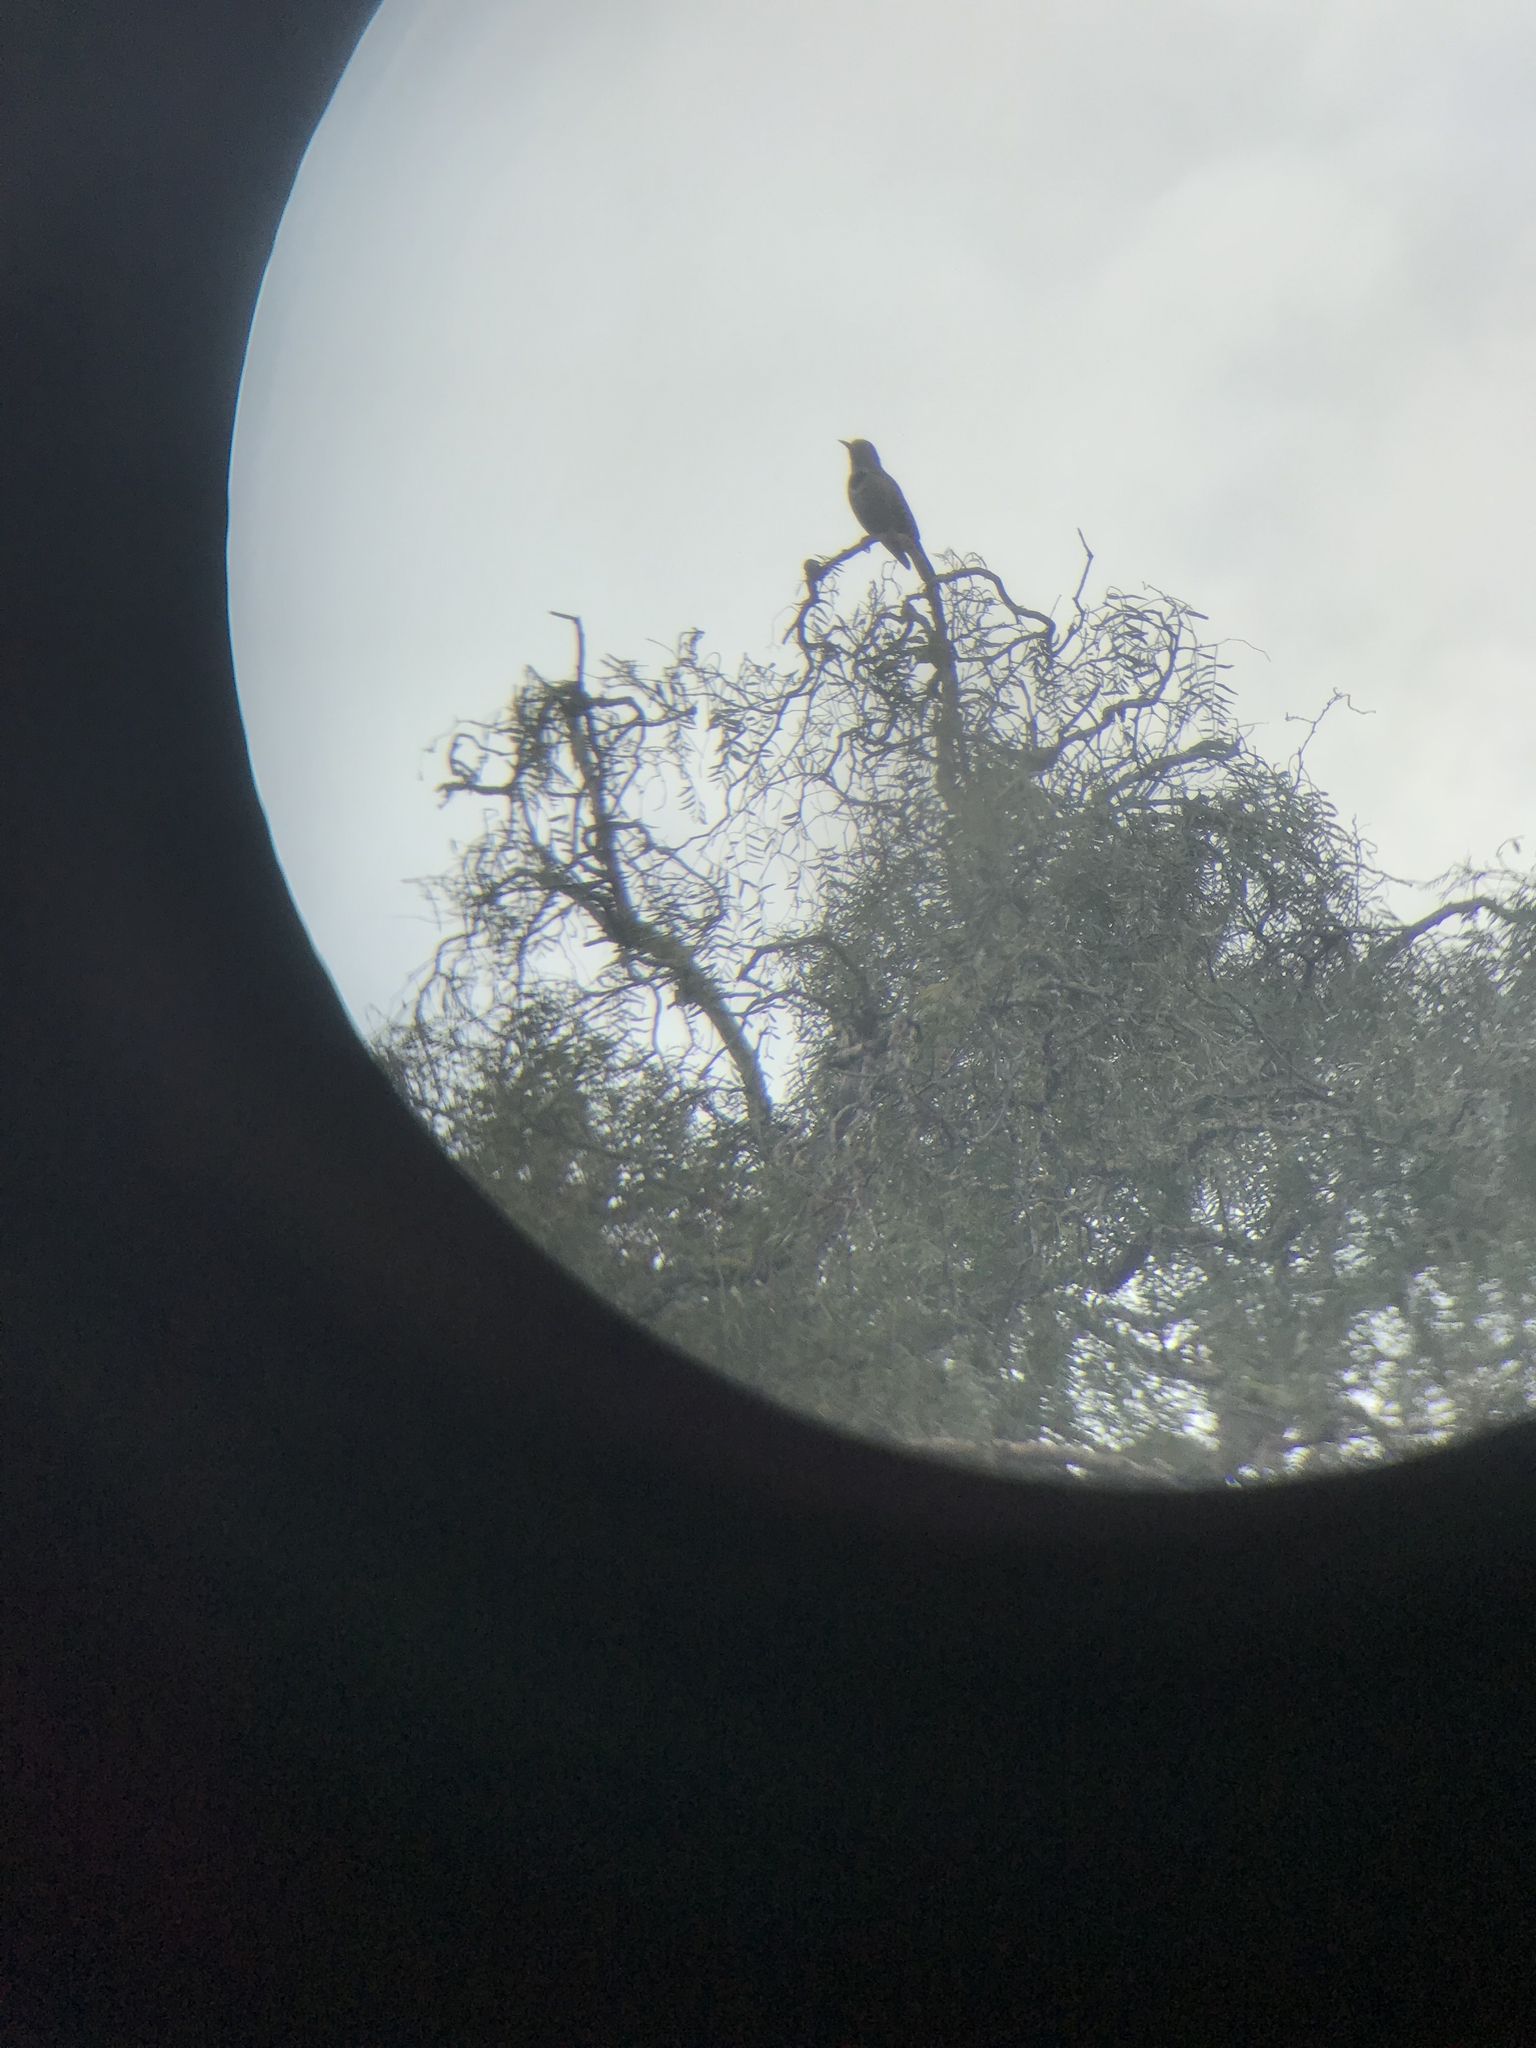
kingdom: Animalia
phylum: Chordata
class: Aves
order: Piciformes
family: Picidae
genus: Colaptes
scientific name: Colaptes auratus
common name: Northern flicker
